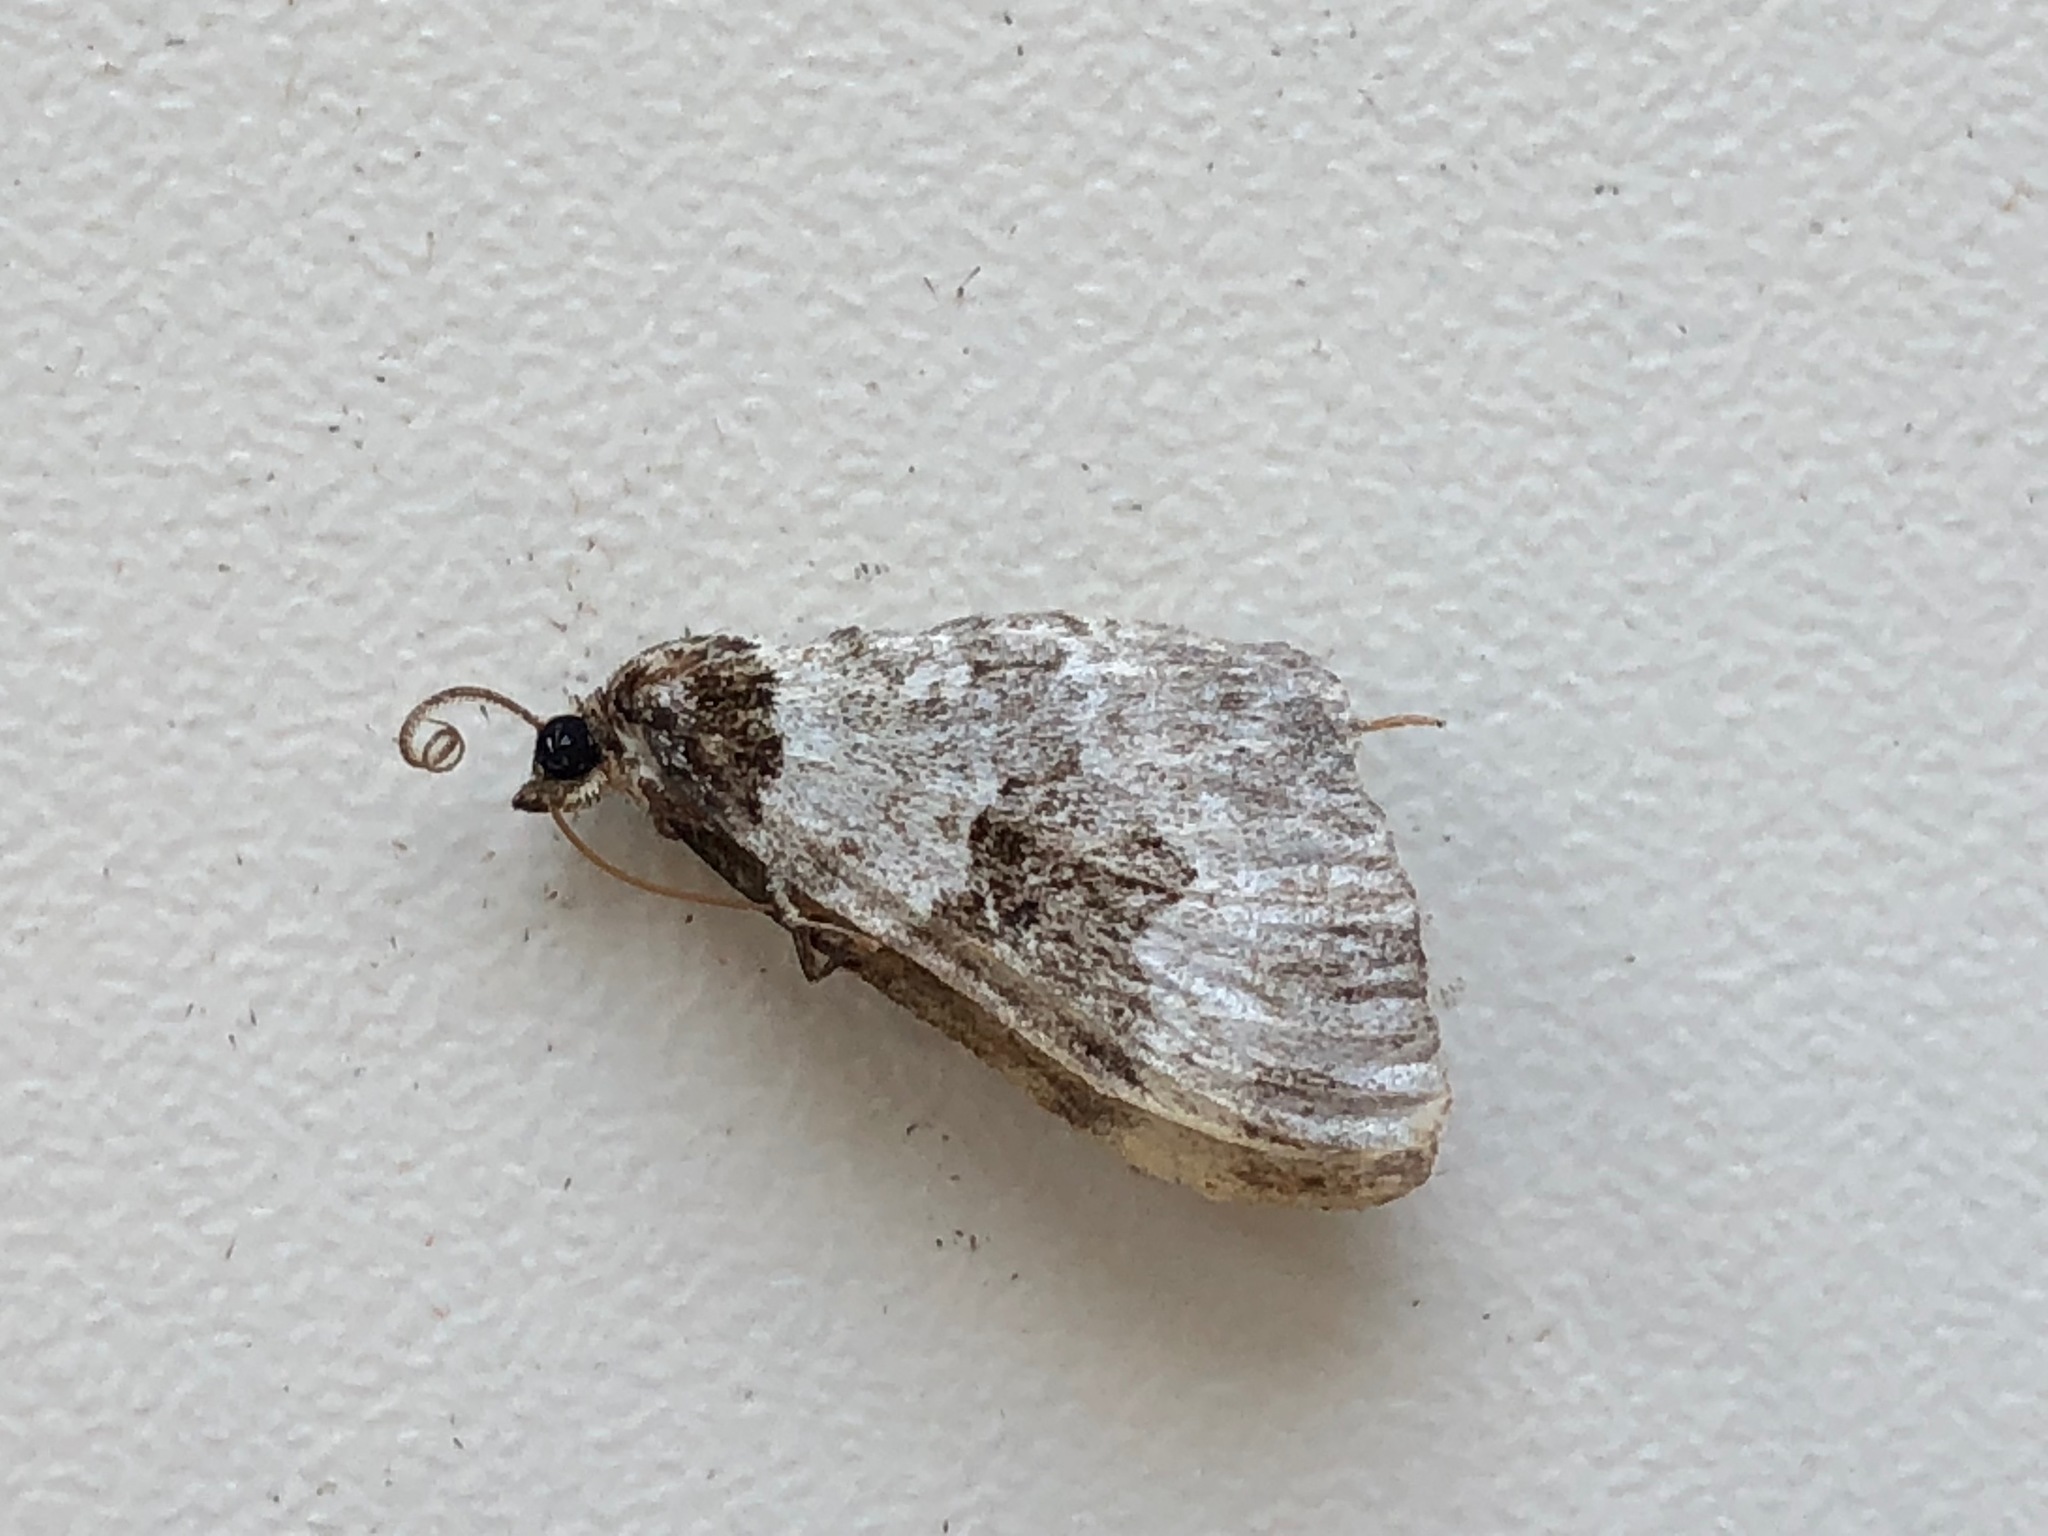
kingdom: Animalia
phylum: Arthropoda
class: Insecta
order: Lepidoptera
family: Geometridae
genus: Xanthorhoe
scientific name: Xanthorhoe fluctuata
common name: Garden carpet
